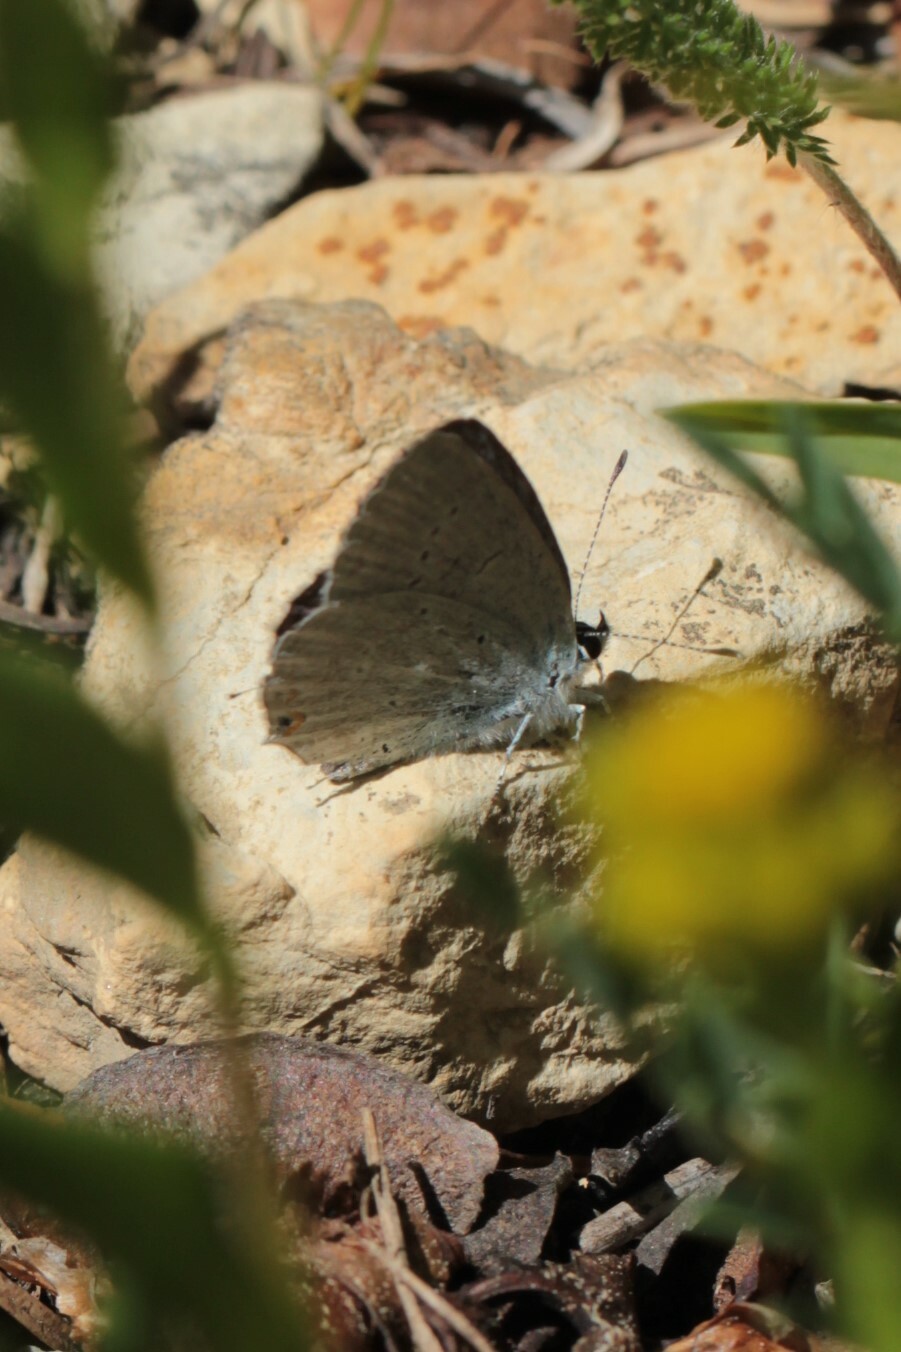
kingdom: Animalia
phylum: Arthropoda
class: Insecta
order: Lepidoptera
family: Lycaenidae
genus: Elkalyce
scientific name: Elkalyce amyntula
